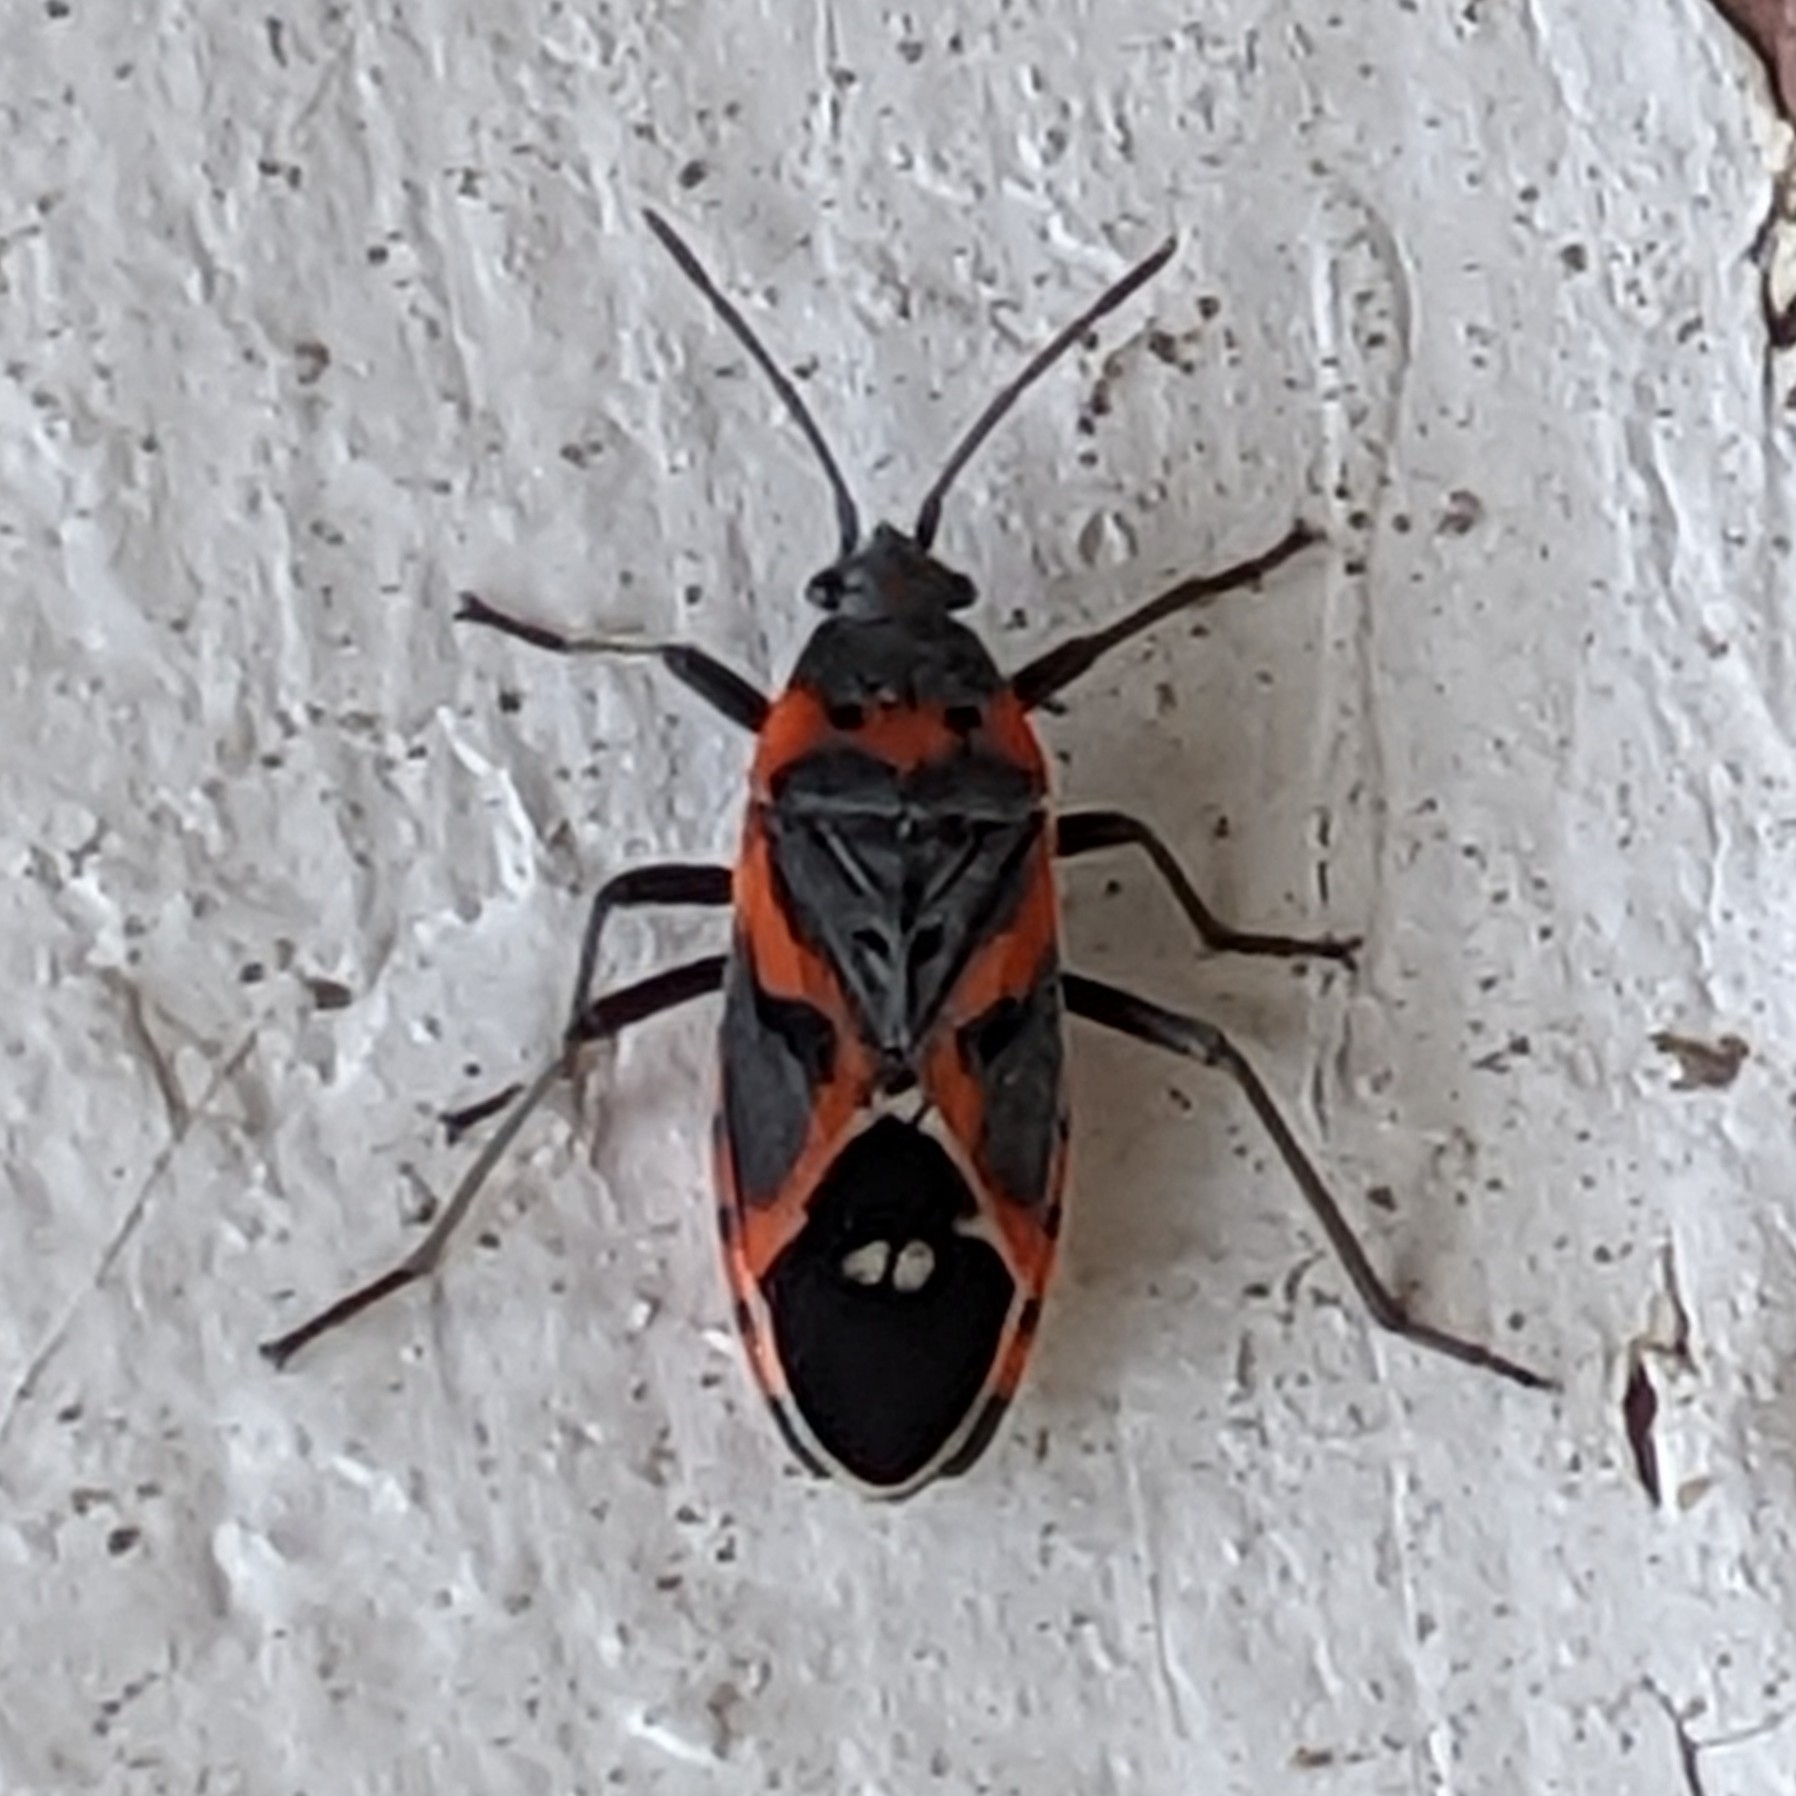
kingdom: Animalia
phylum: Arthropoda
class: Insecta
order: Hemiptera
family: Lygaeidae
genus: Lygaeus
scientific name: Lygaeus kalmii
